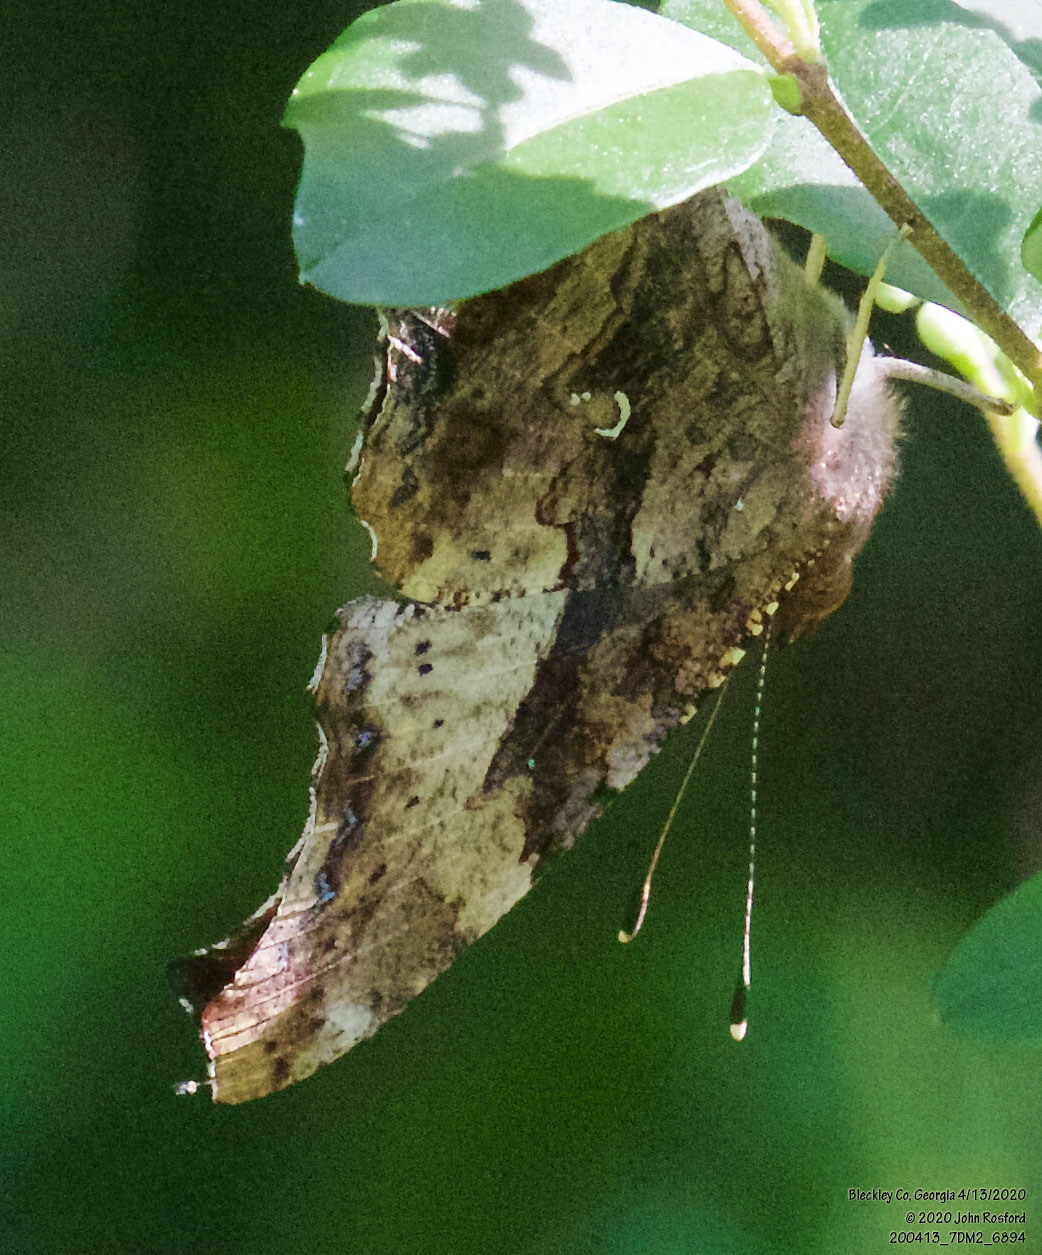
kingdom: Animalia
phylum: Arthropoda
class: Insecta
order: Lepidoptera
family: Nymphalidae
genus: Polygonia
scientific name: Polygonia interrogationis
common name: Question mark
